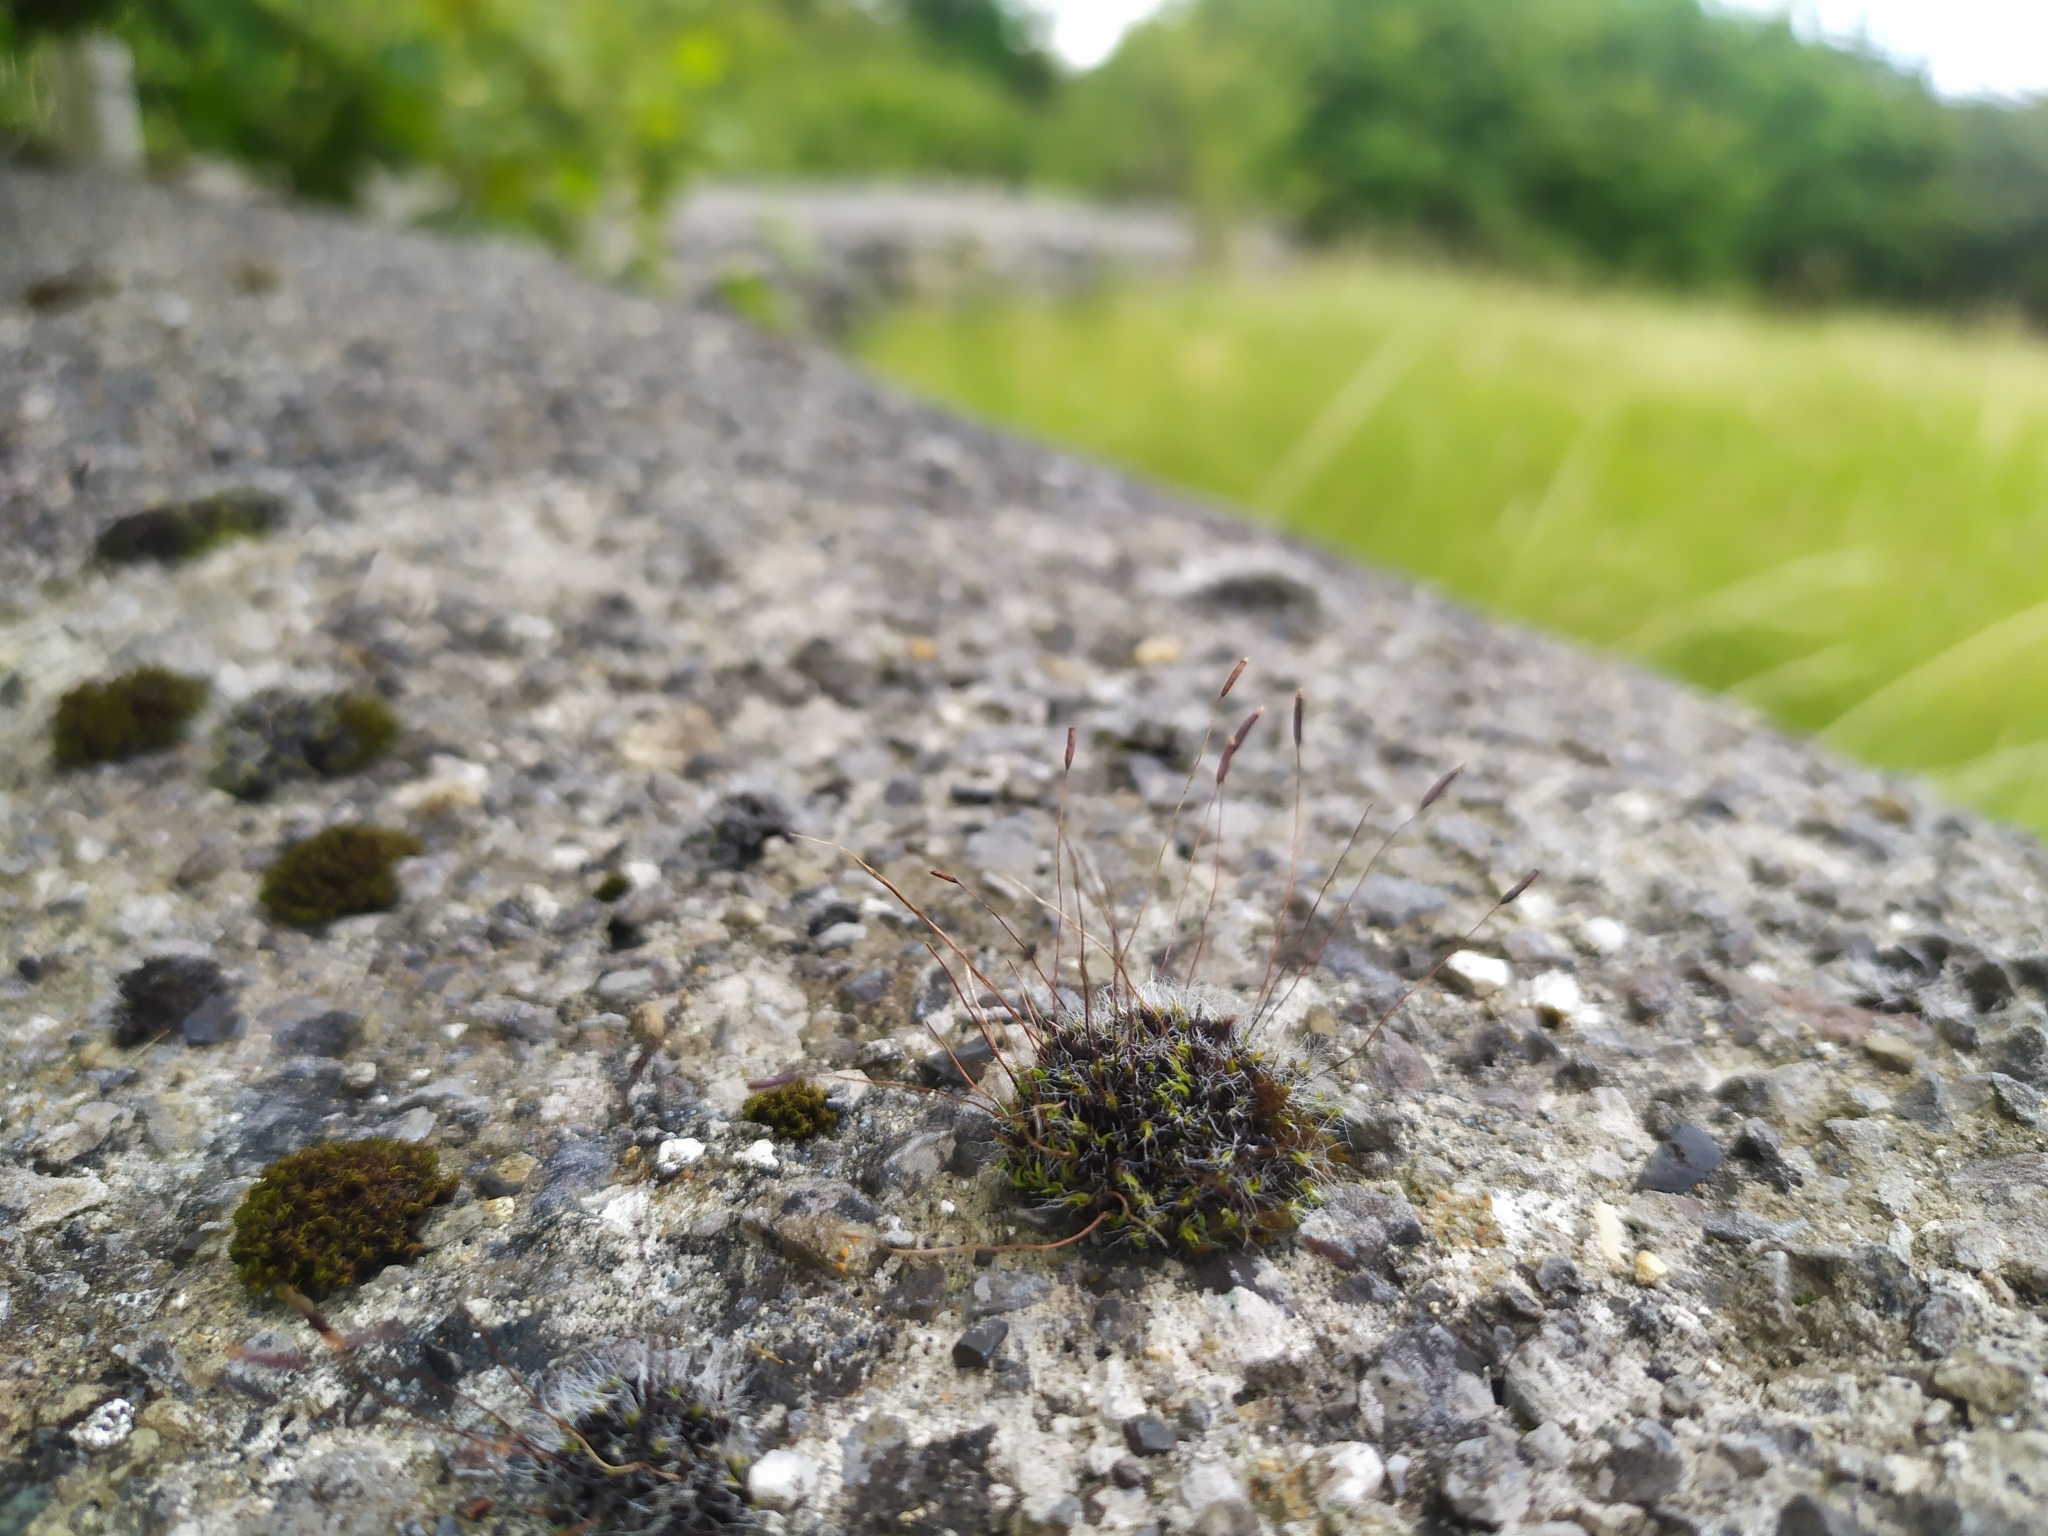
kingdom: Plantae
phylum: Bryophyta
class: Bryopsida
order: Pottiales
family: Pottiaceae
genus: Tortula
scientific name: Tortula muralis
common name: Wall screw-moss
